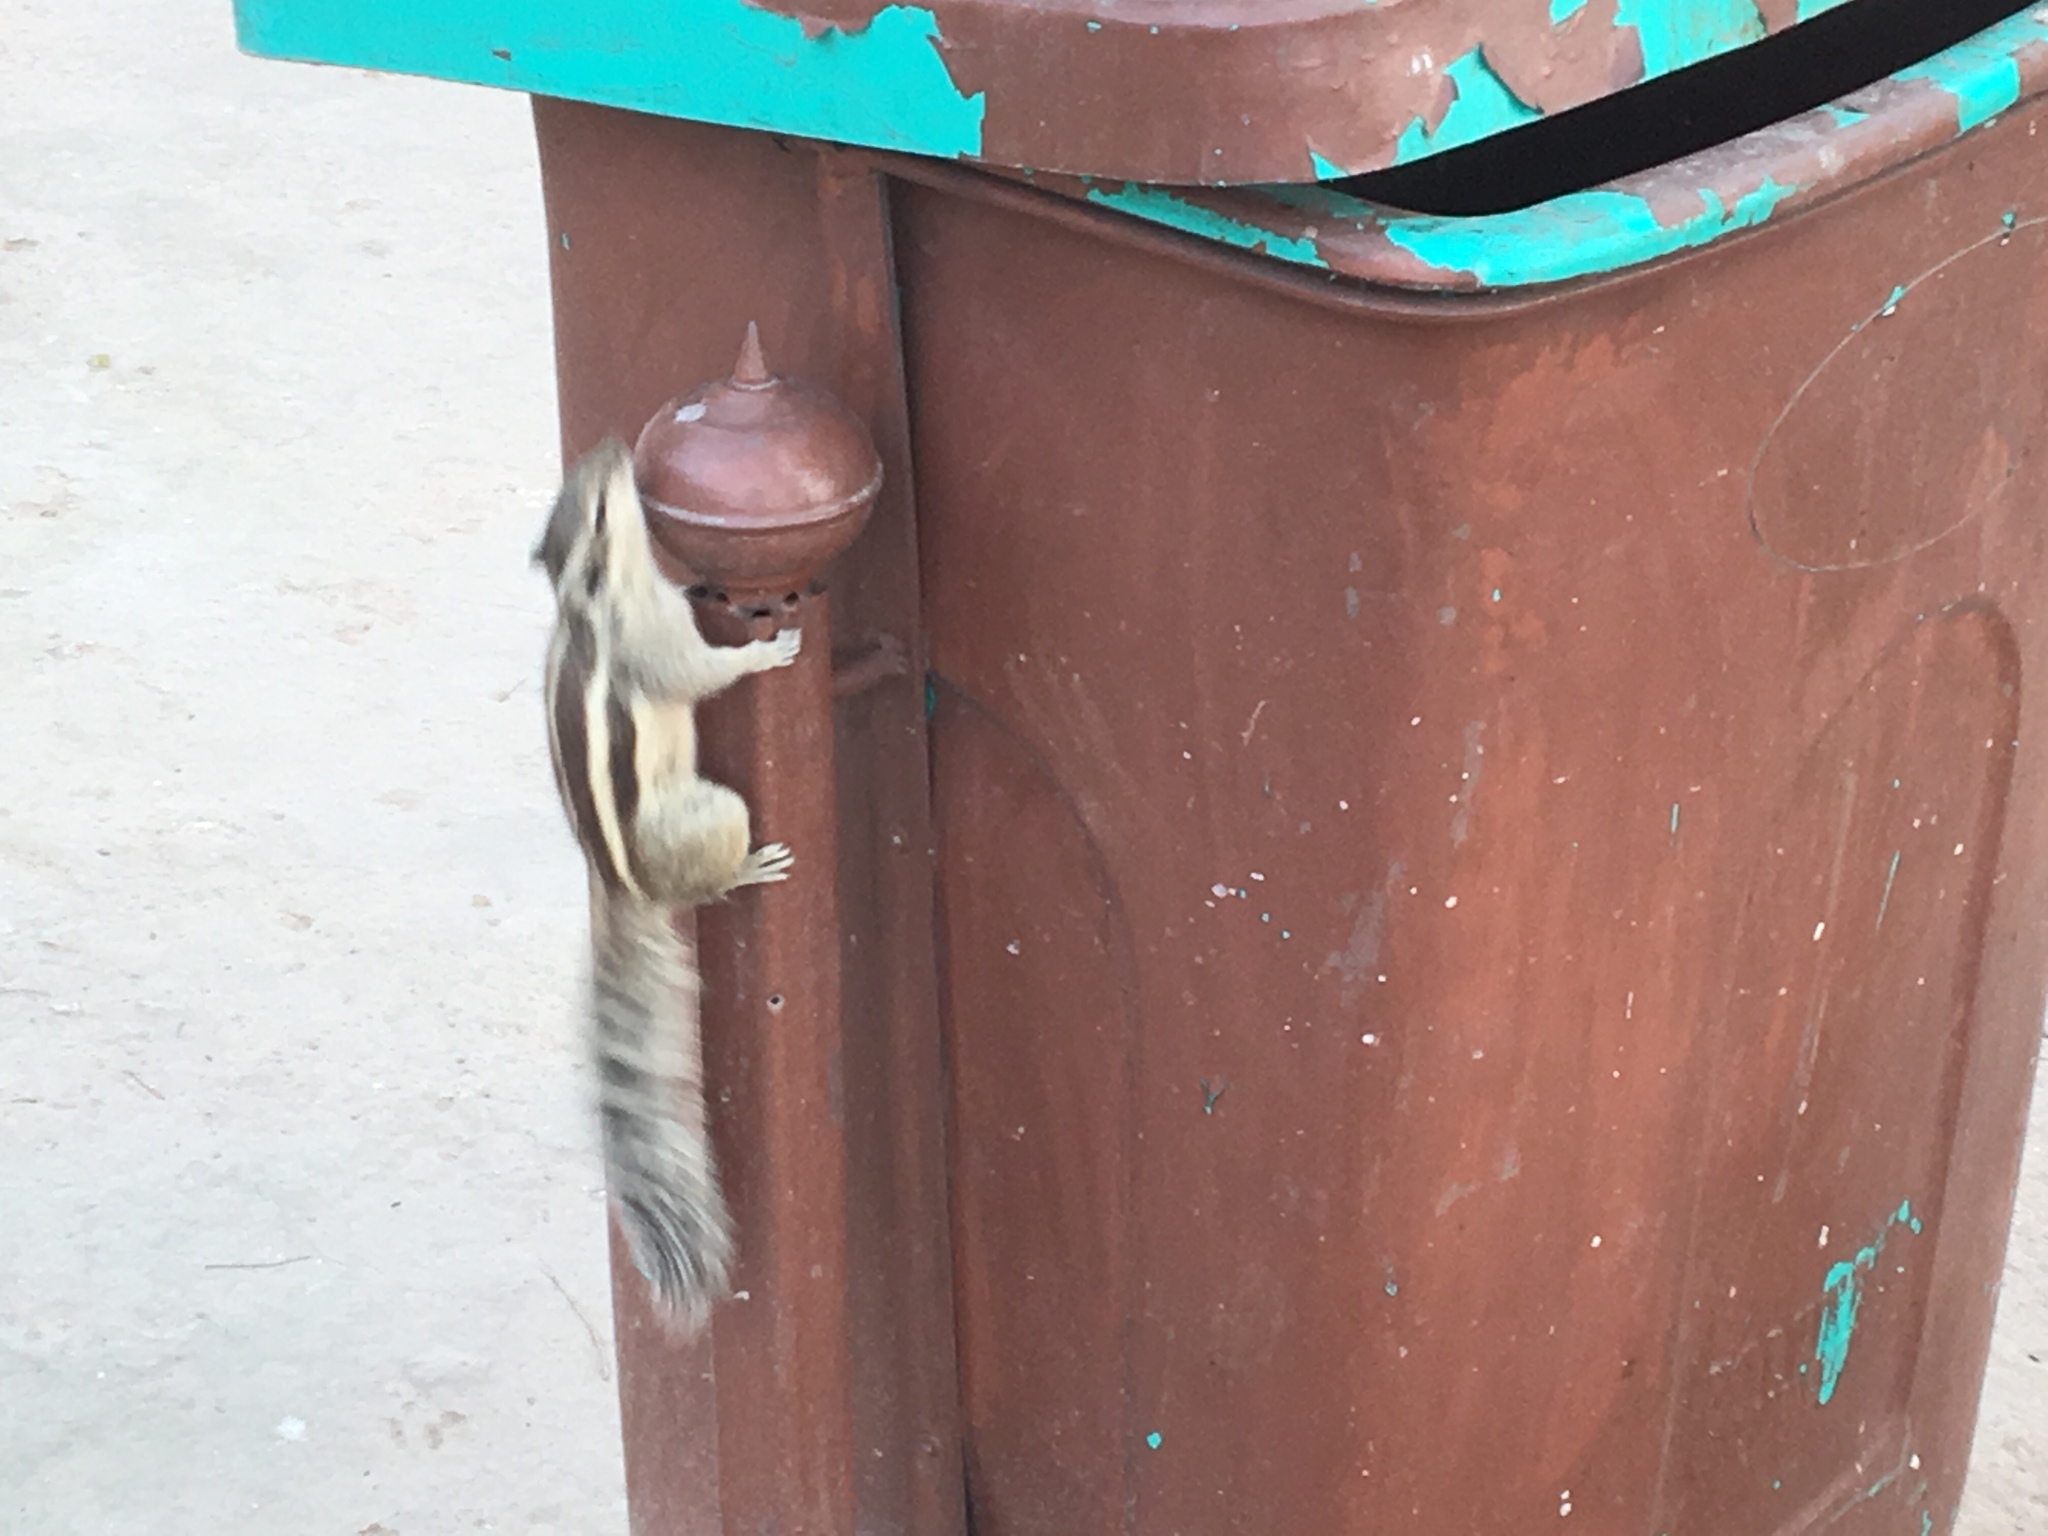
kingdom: Animalia
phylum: Chordata
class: Mammalia
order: Rodentia
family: Sciuridae
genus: Funambulus
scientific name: Funambulus pennantii
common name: Northern palm squirrel
